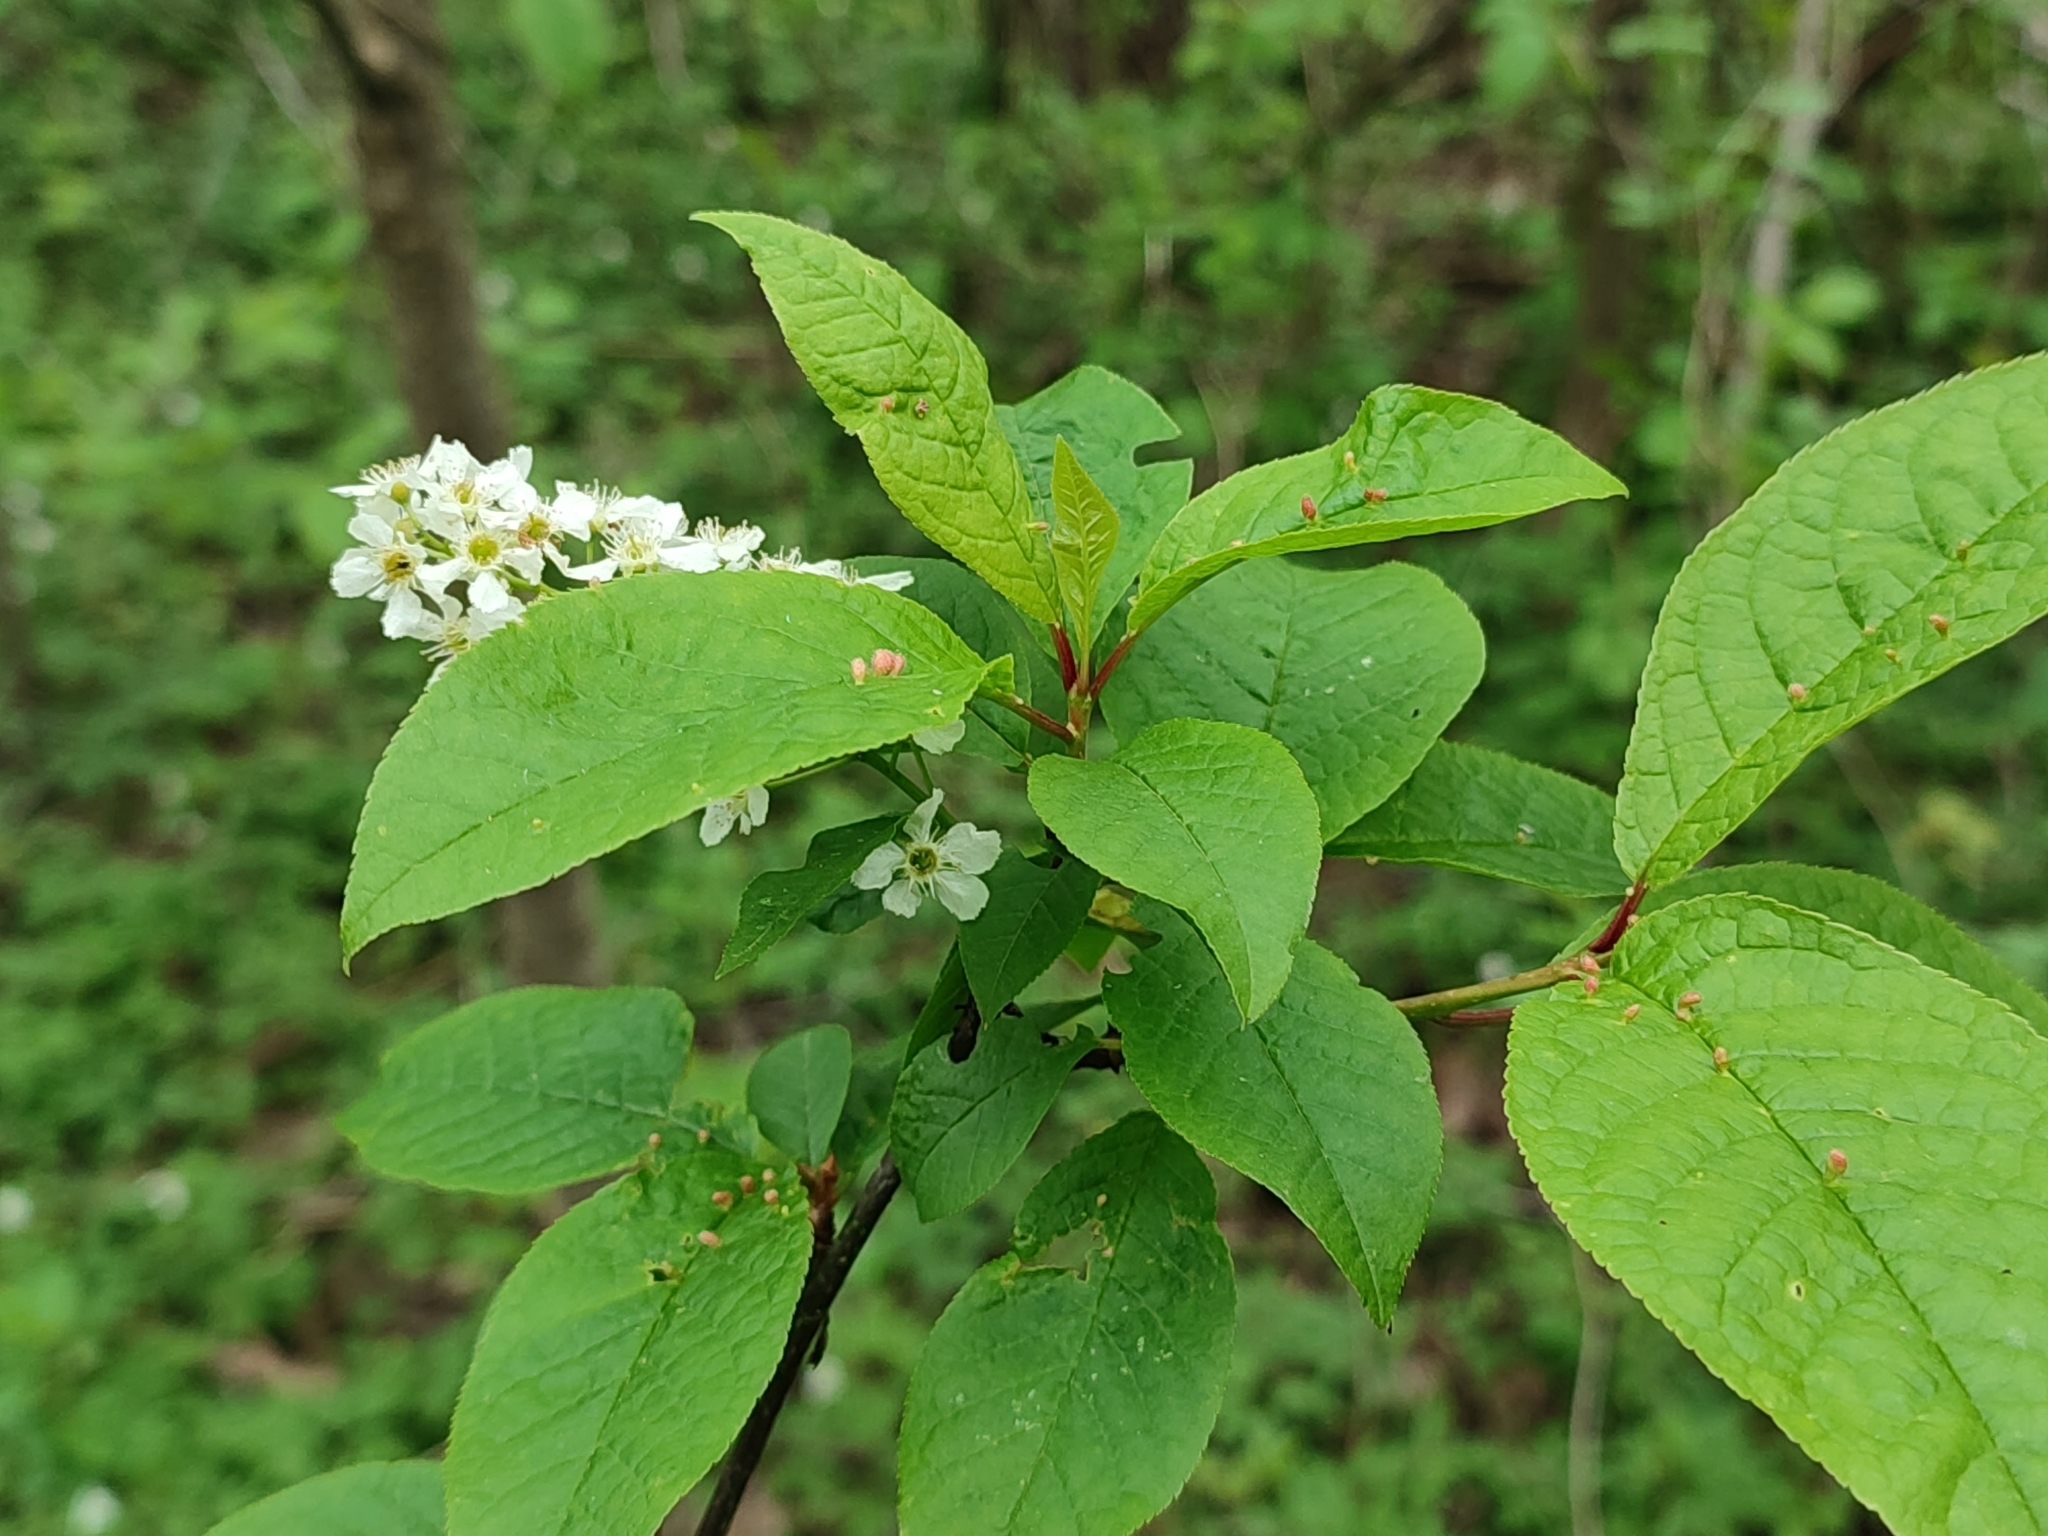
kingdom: Plantae
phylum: Tracheophyta
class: Magnoliopsida
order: Rosales
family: Rosaceae
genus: Prunus
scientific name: Prunus padus
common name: Bird cherry
